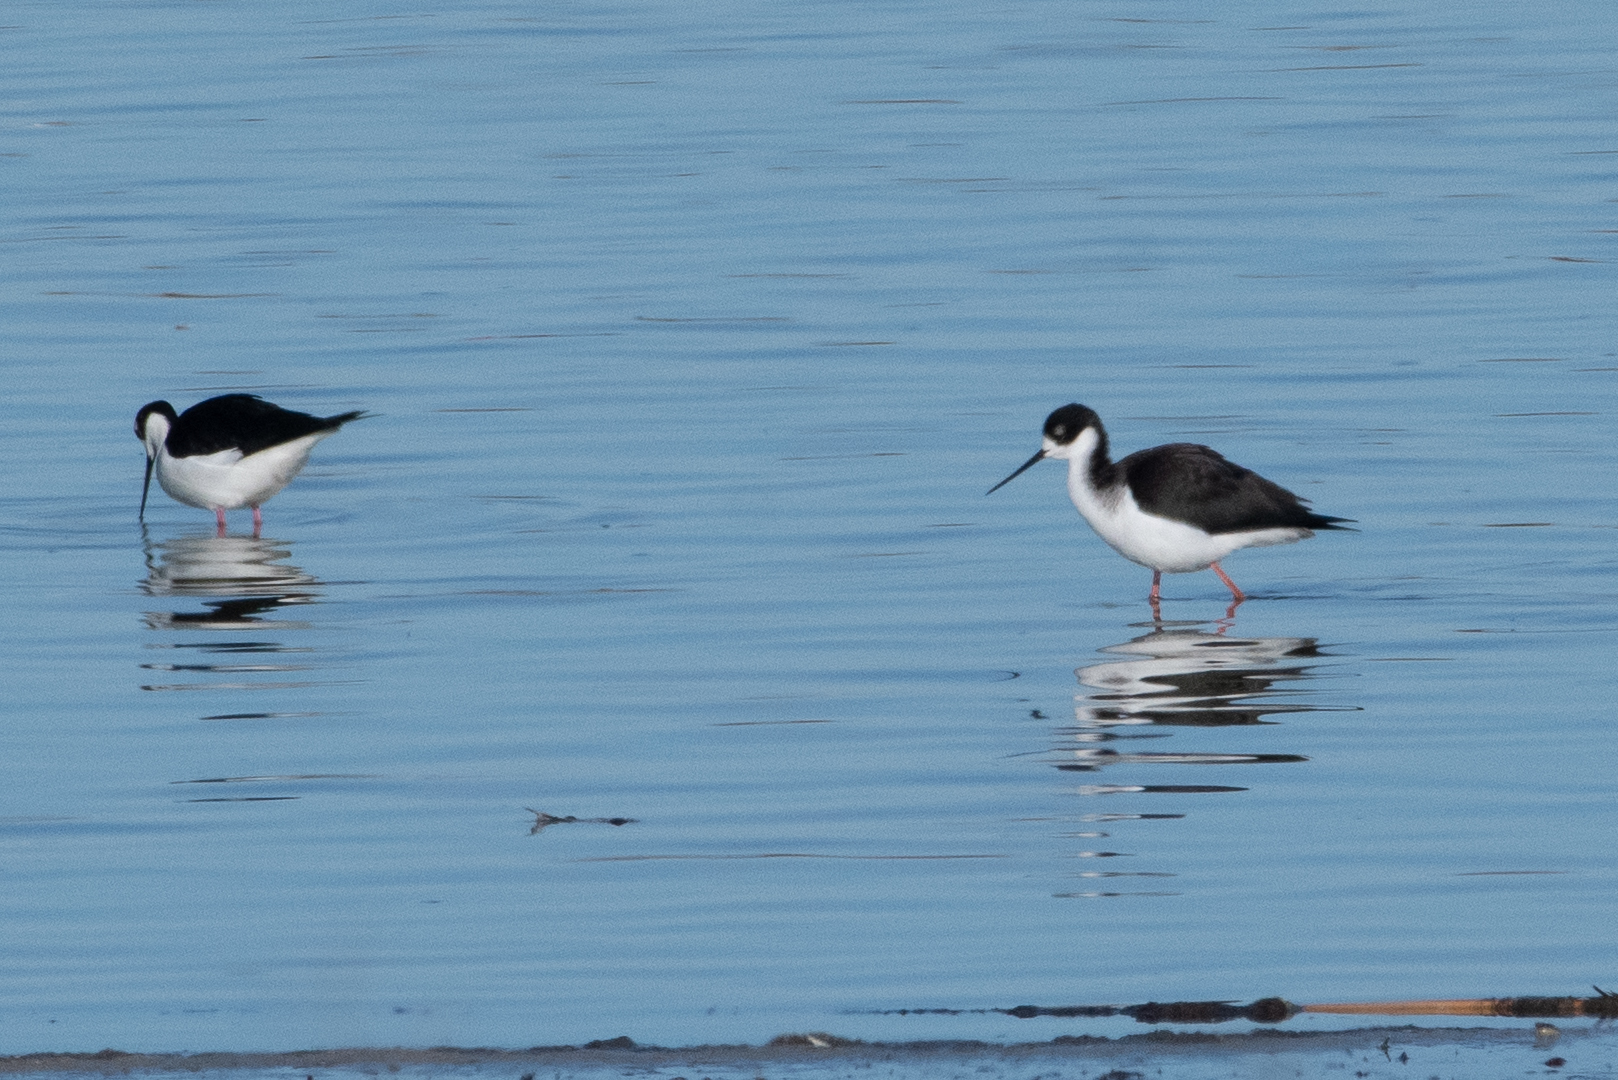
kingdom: Animalia
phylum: Chordata
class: Aves
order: Charadriiformes
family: Recurvirostridae
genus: Himantopus
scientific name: Himantopus mexicanus
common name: Black-necked stilt
